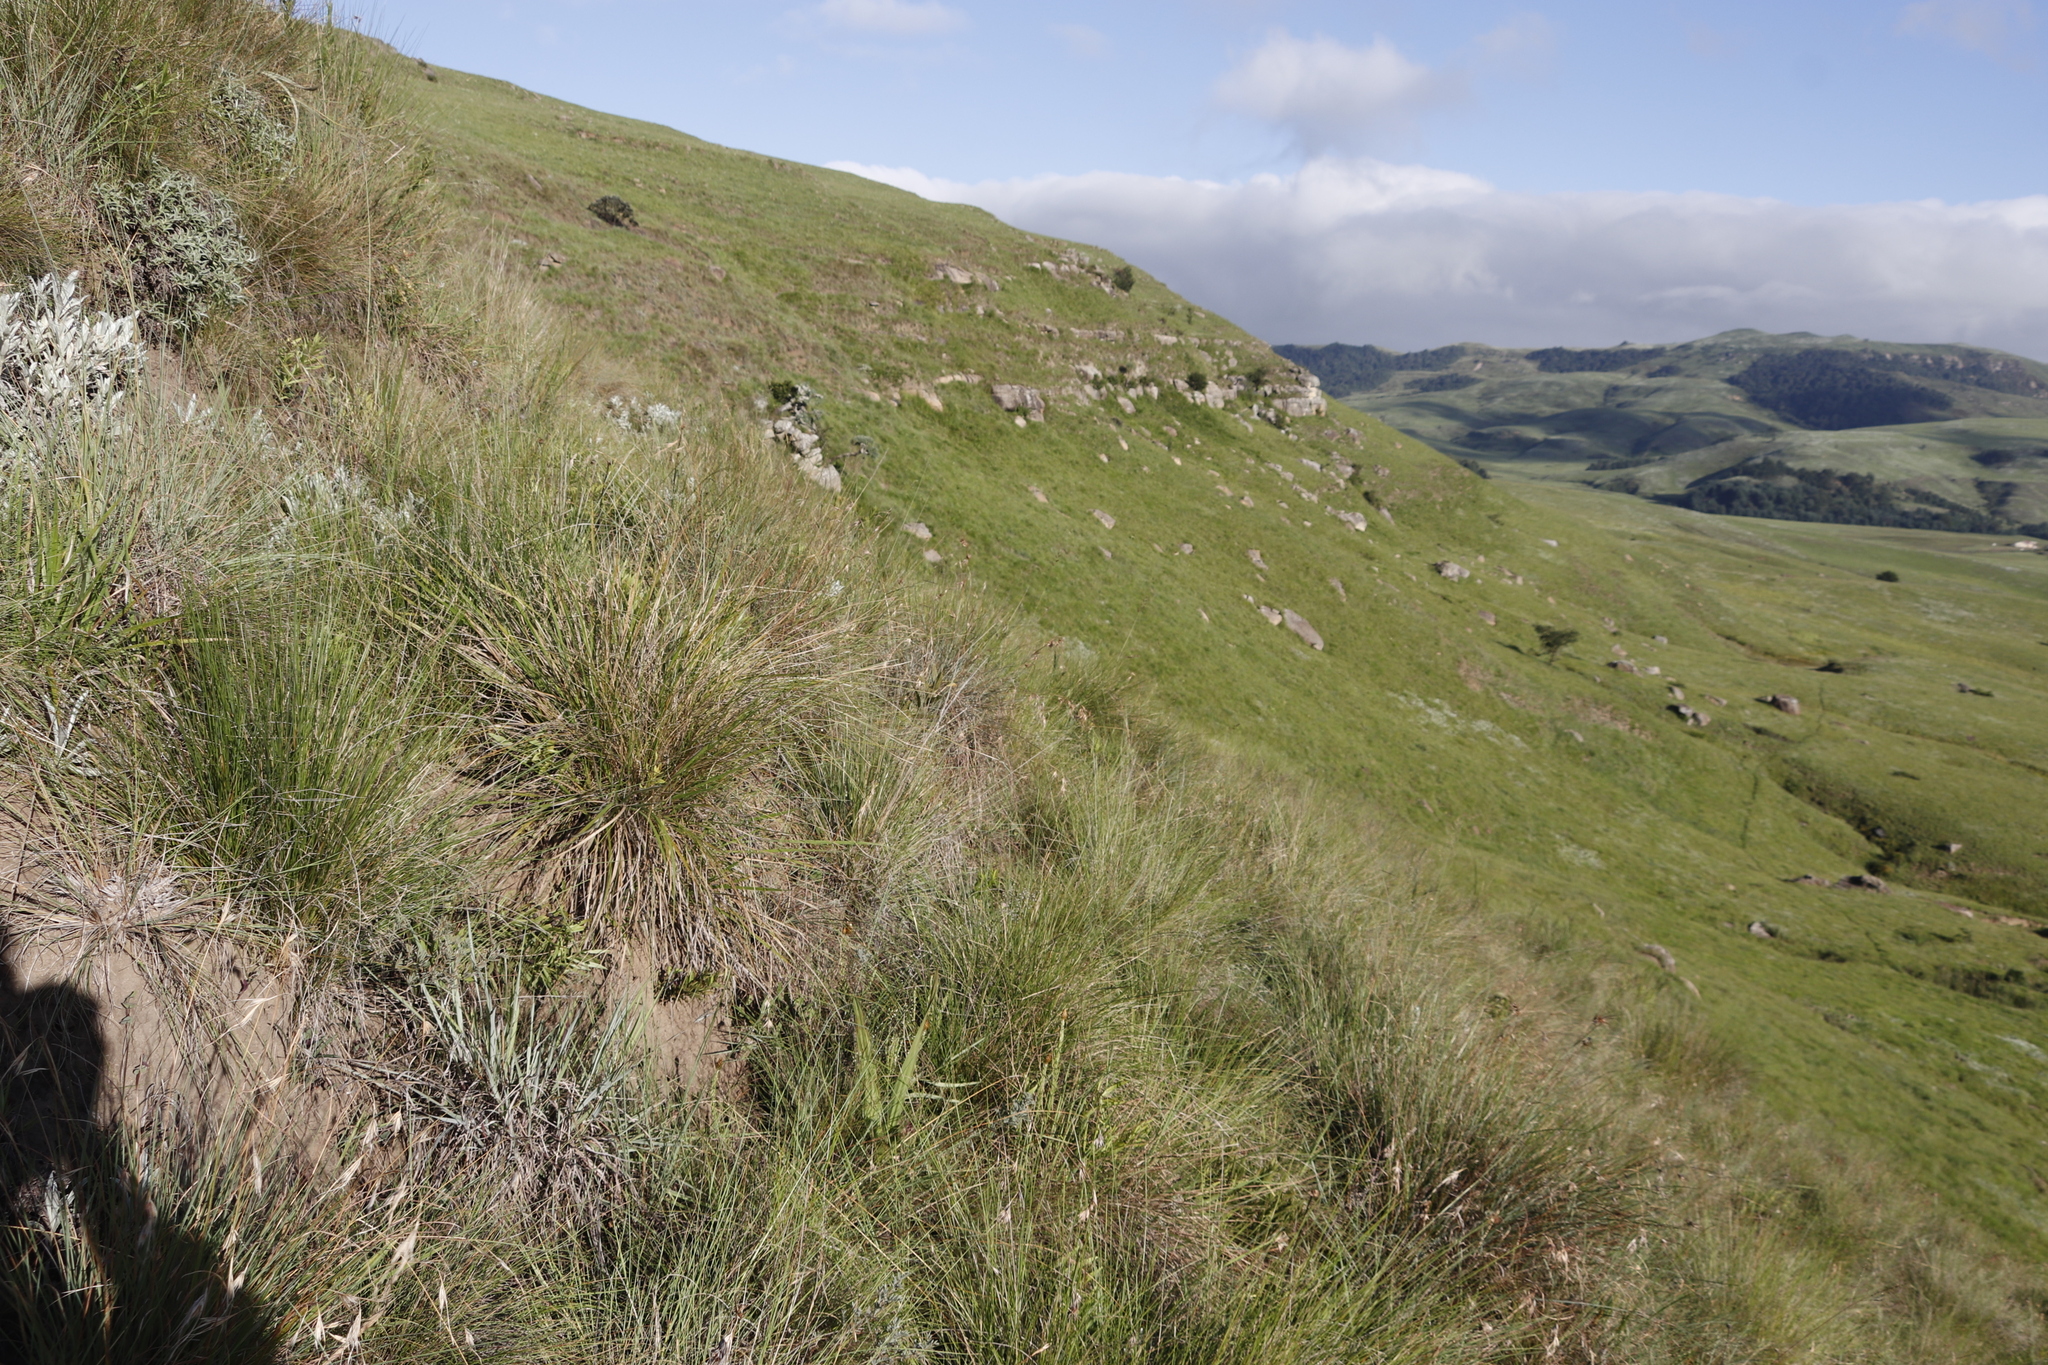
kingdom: Plantae
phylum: Tracheophyta
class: Liliopsida
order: Poales
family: Poaceae
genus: Themeda
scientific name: Themeda triandra
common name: Kangaroo grass
